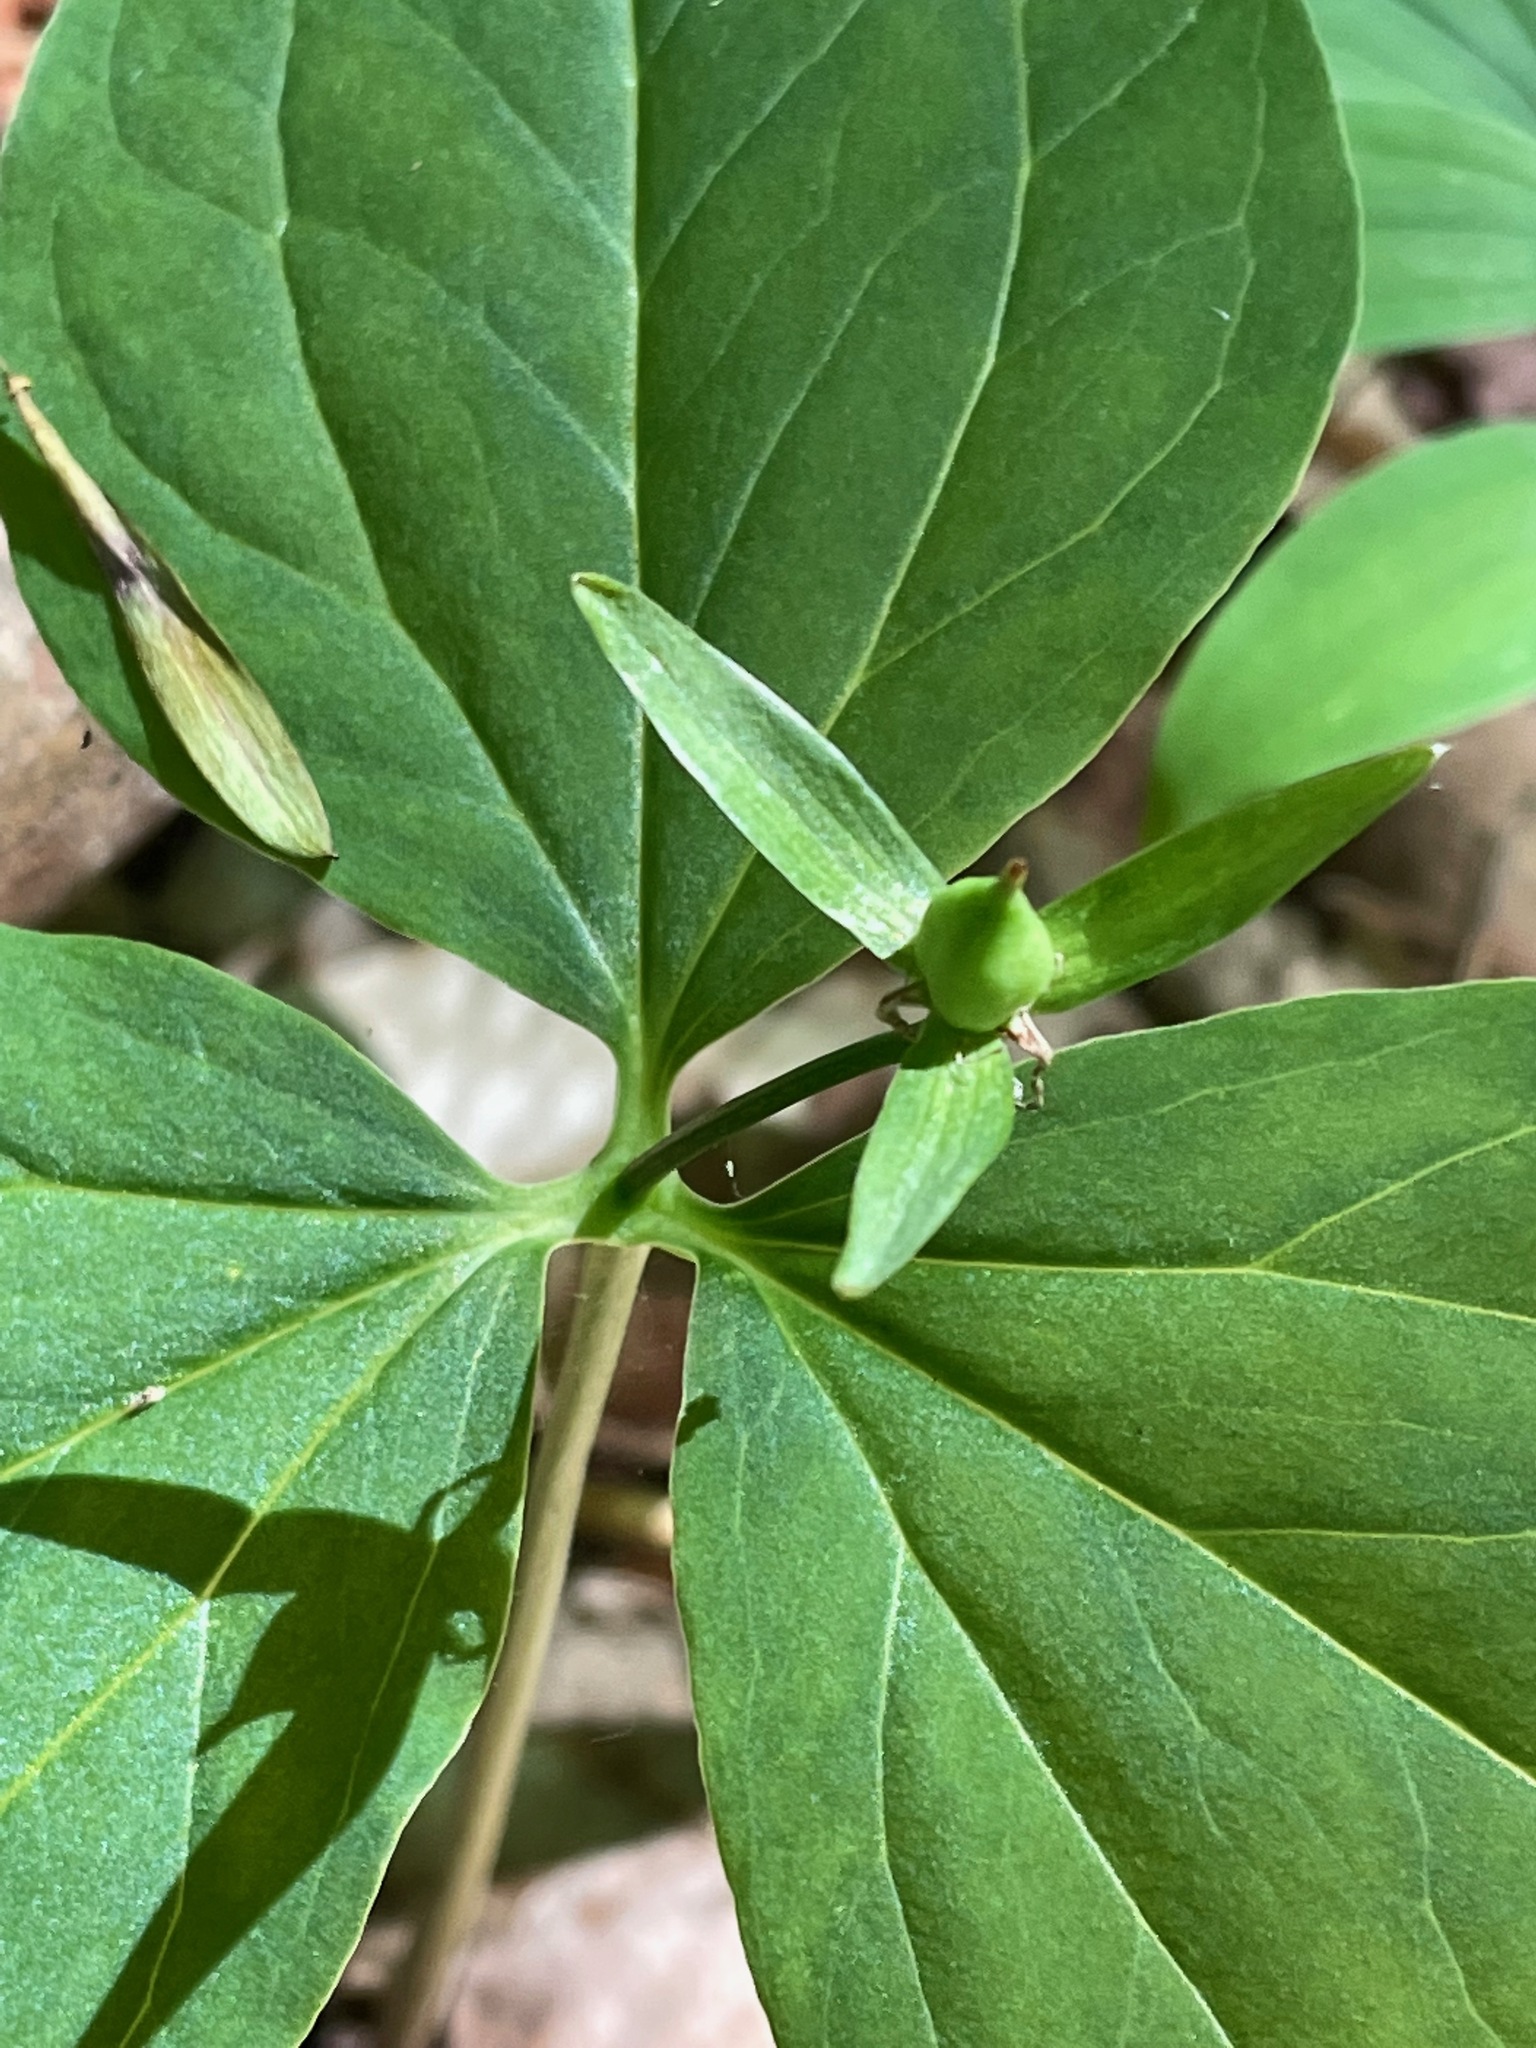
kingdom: Plantae
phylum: Tracheophyta
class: Liliopsida
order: Liliales
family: Melanthiaceae
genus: Trillium
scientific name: Trillium undulatum
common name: Paint trillium
